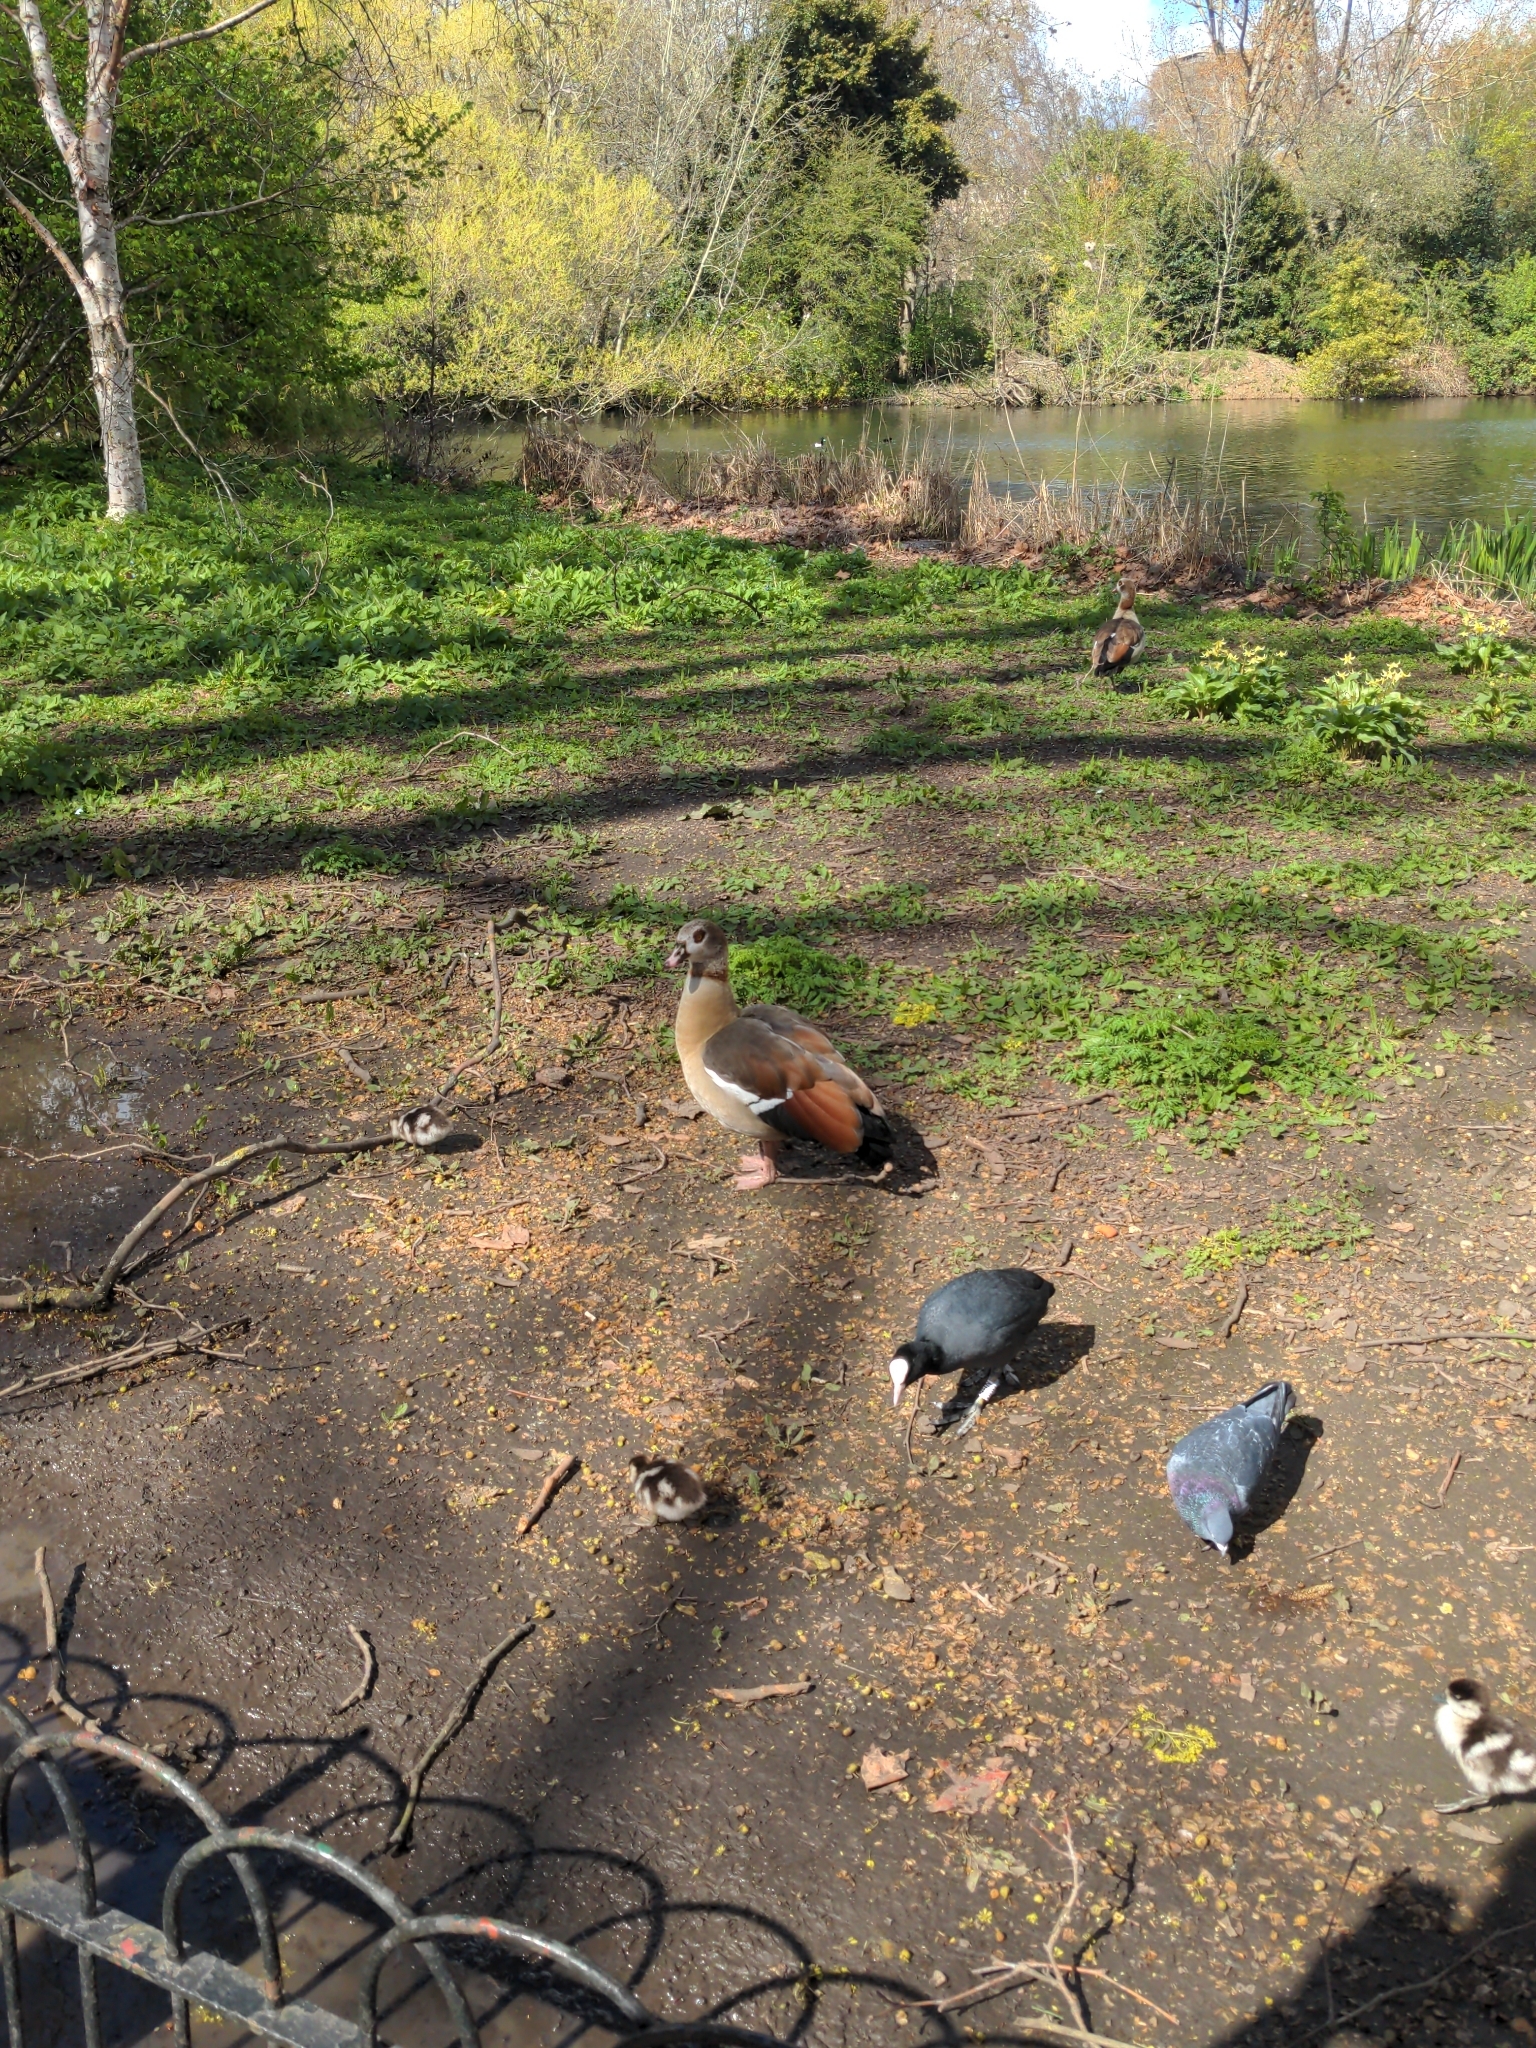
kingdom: Animalia
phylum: Chordata
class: Aves
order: Anseriformes
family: Anatidae
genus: Alopochen
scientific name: Alopochen aegyptiaca
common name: Egyptian goose
